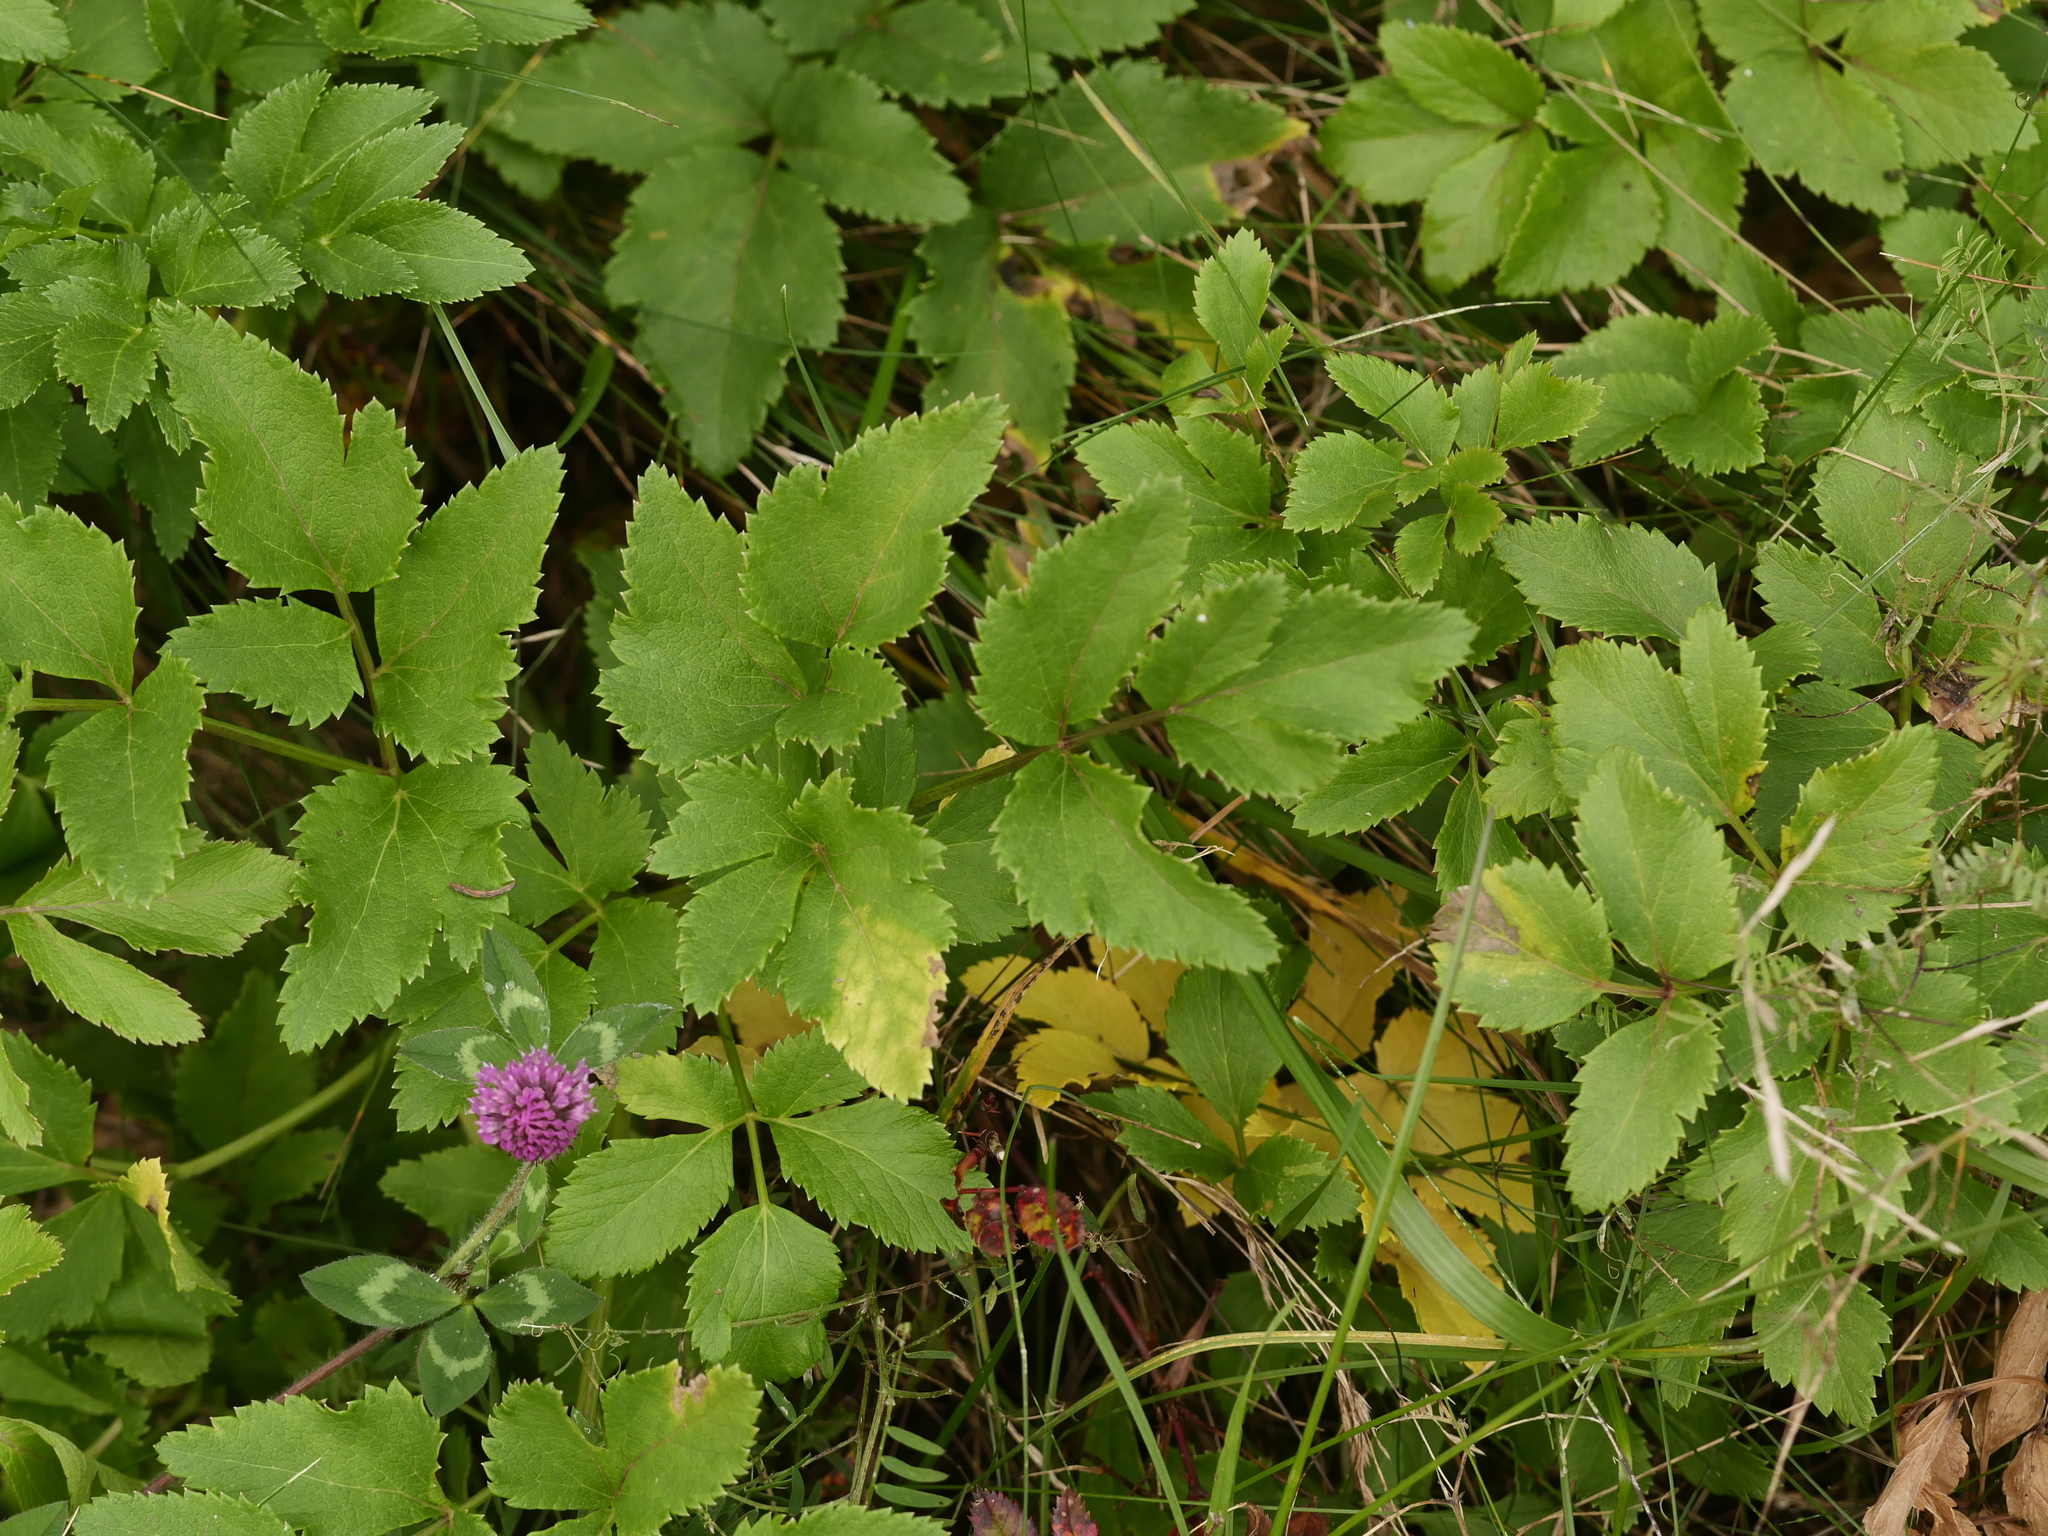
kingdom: Plantae
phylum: Tracheophyta
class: Magnoliopsida
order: Apiales
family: Apiaceae
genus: Ligusticum
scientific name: Ligusticum scothicum
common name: Beach lovage
